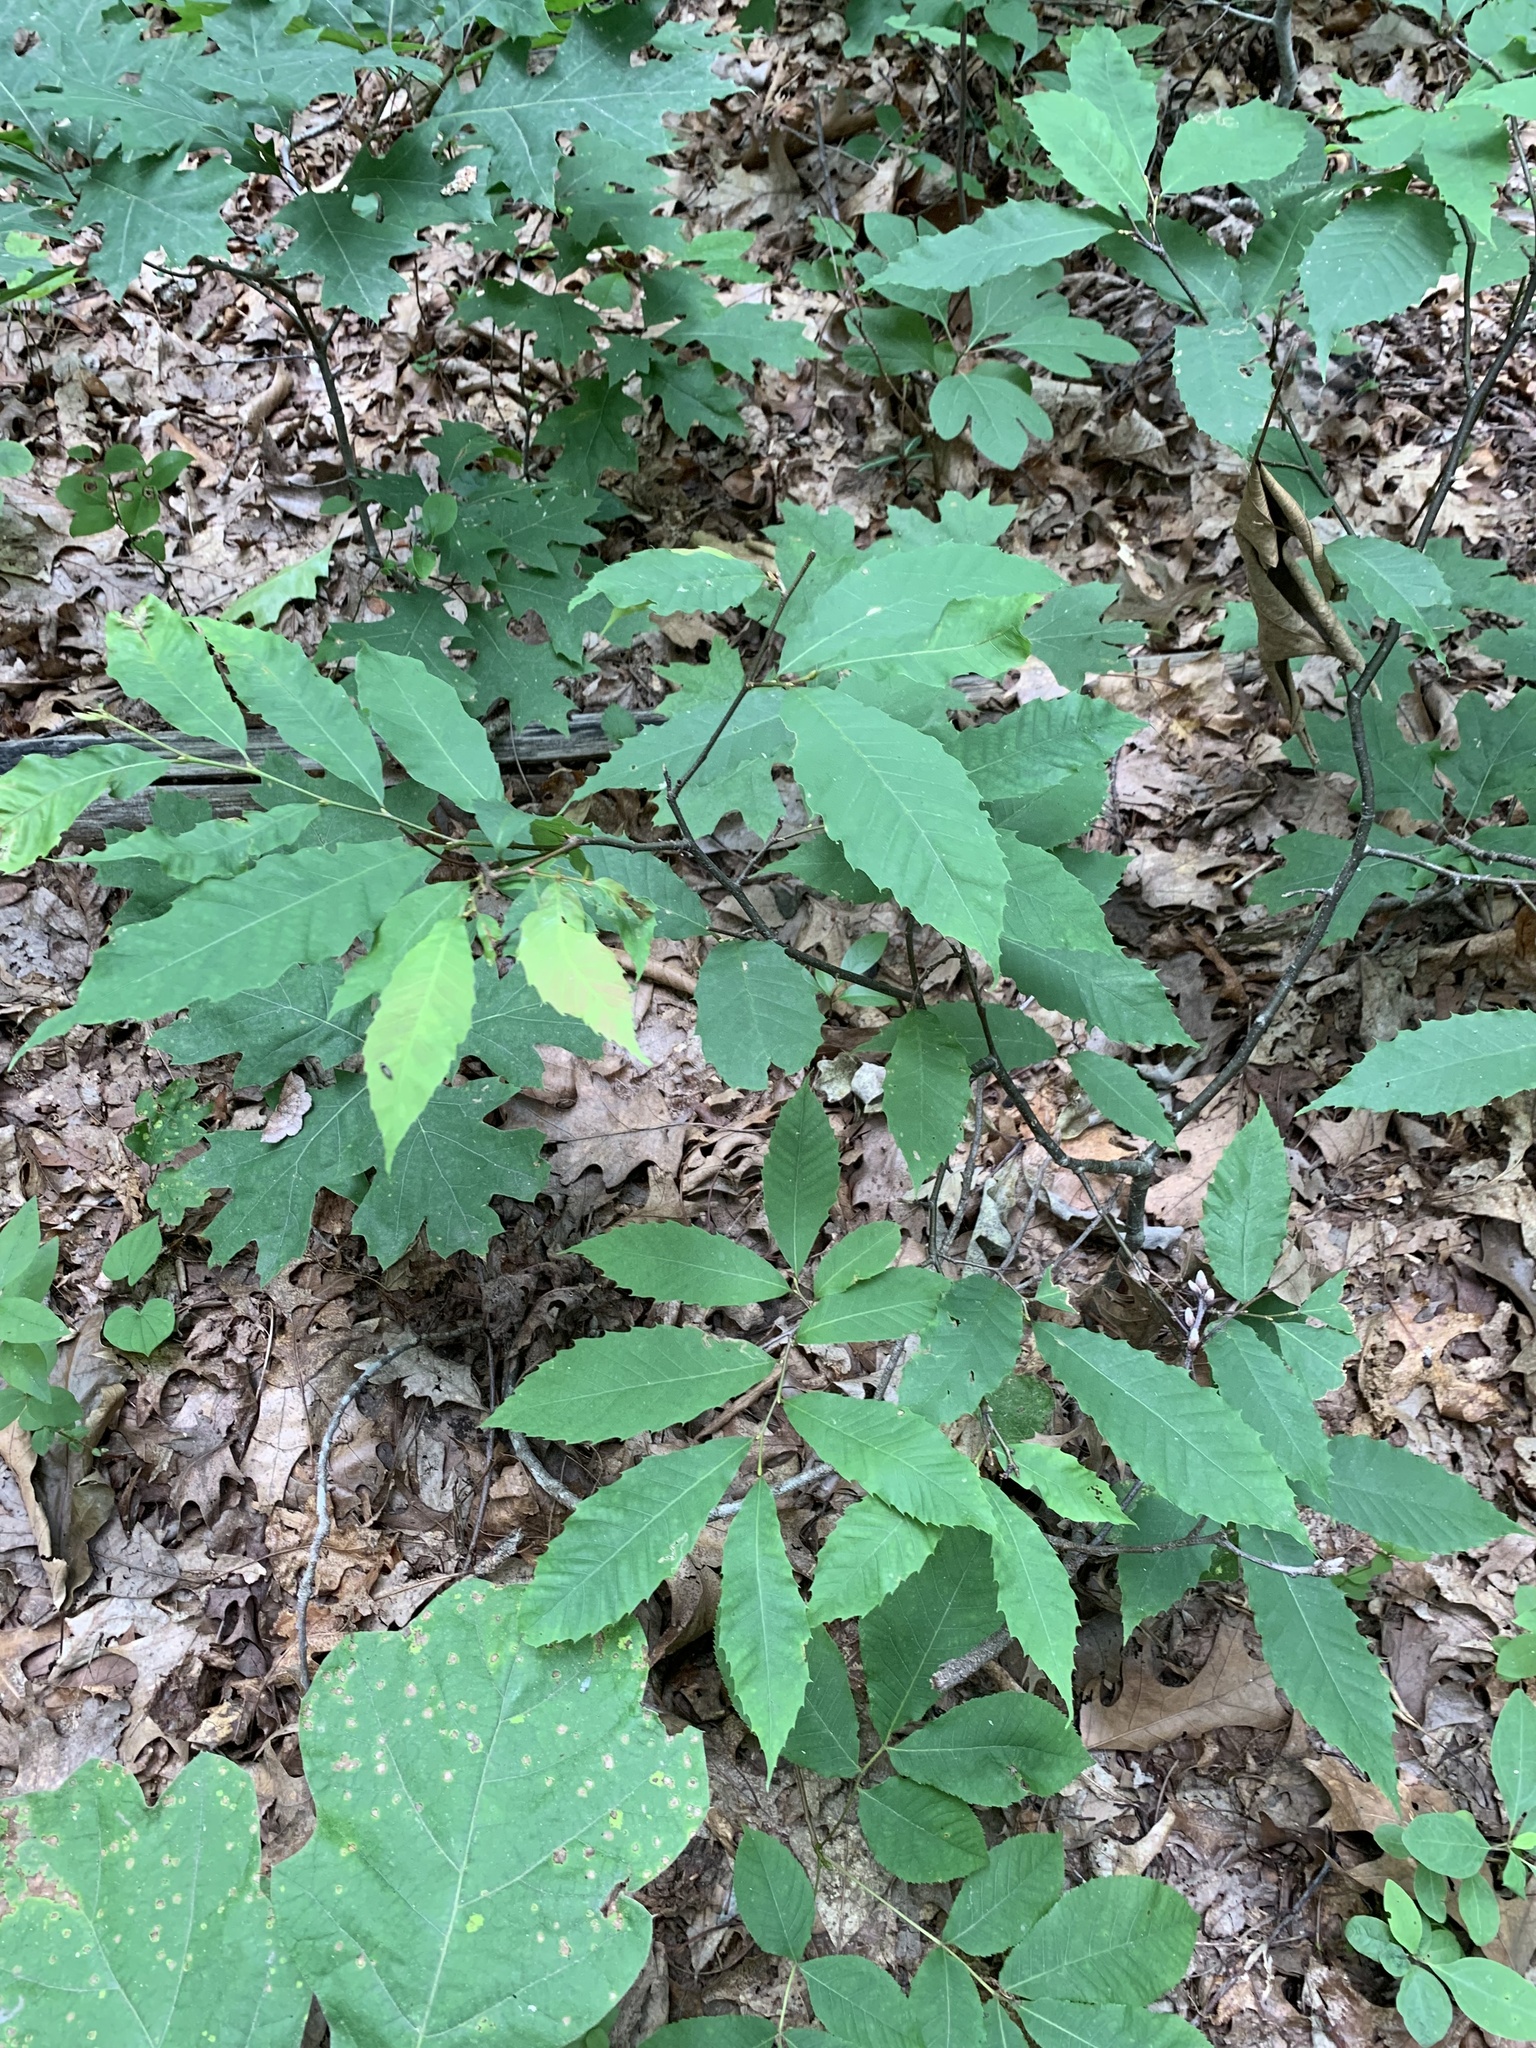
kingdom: Plantae
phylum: Tracheophyta
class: Magnoliopsida
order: Fagales
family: Fagaceae
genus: Castanea
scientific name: Castanea dentata
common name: American chestnut
